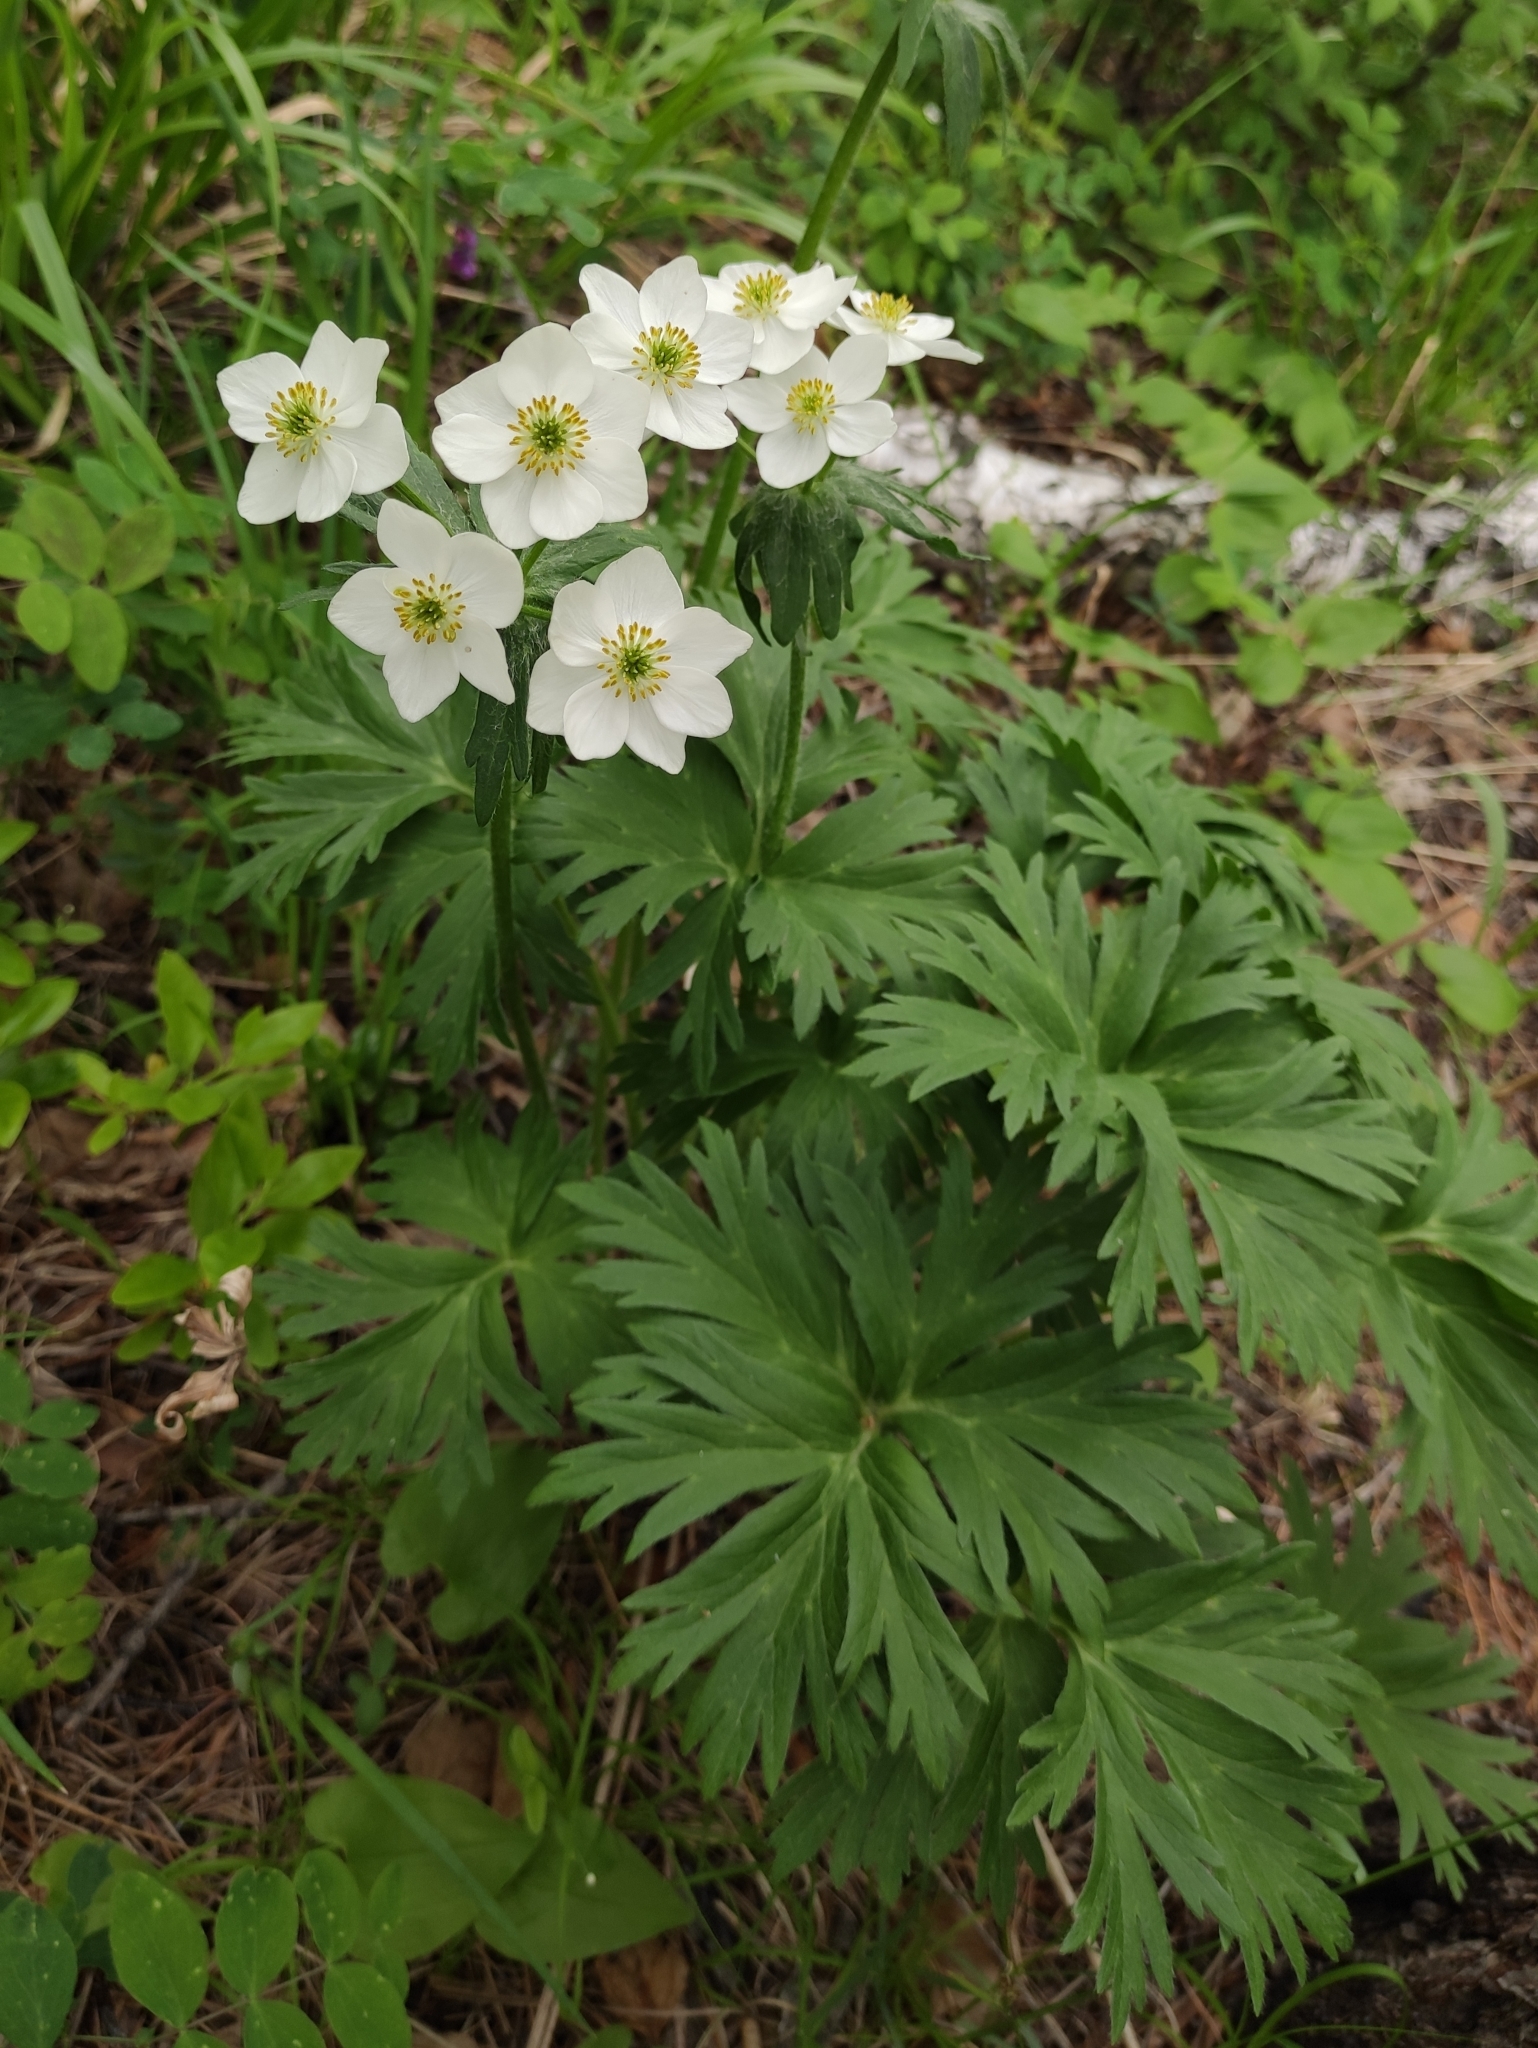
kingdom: Plantae
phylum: Tracheophyta
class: Magnoliopsida
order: Ranunculales
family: Ranunculaceae
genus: Anemonastrum
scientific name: Anemonastrum narcissiflorum
